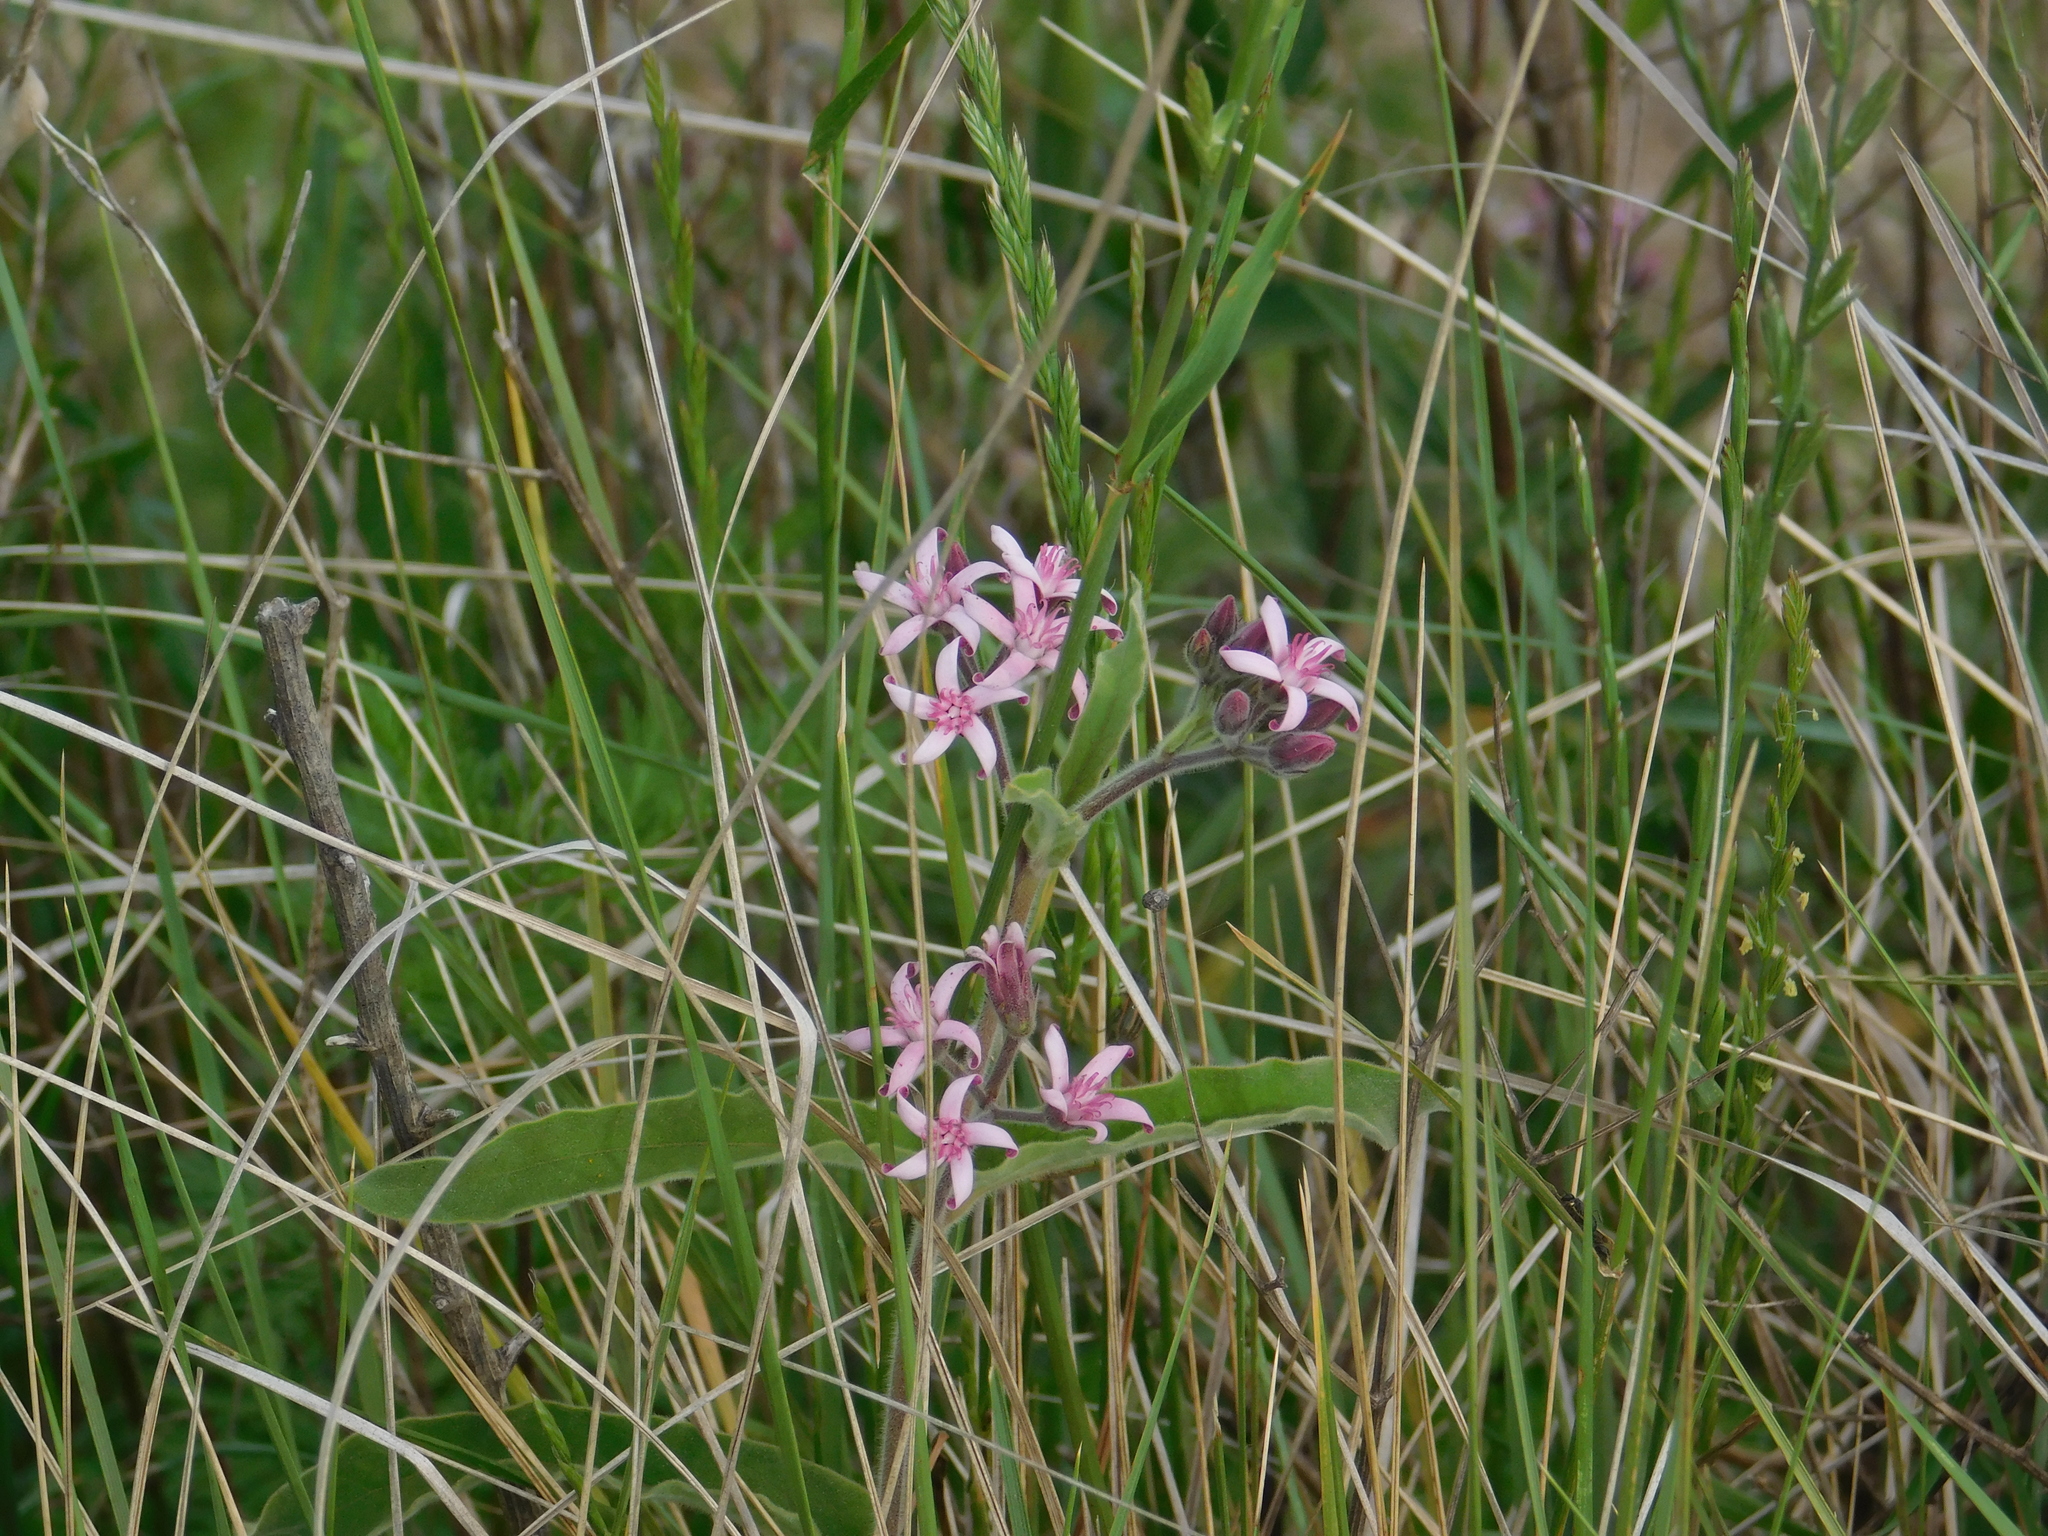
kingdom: Plantae
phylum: Tracheophyta
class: Magnoliopsida
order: Gentianales
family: Apocynaceae
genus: Oxypetalum
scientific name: Oxypetalum solanoides
